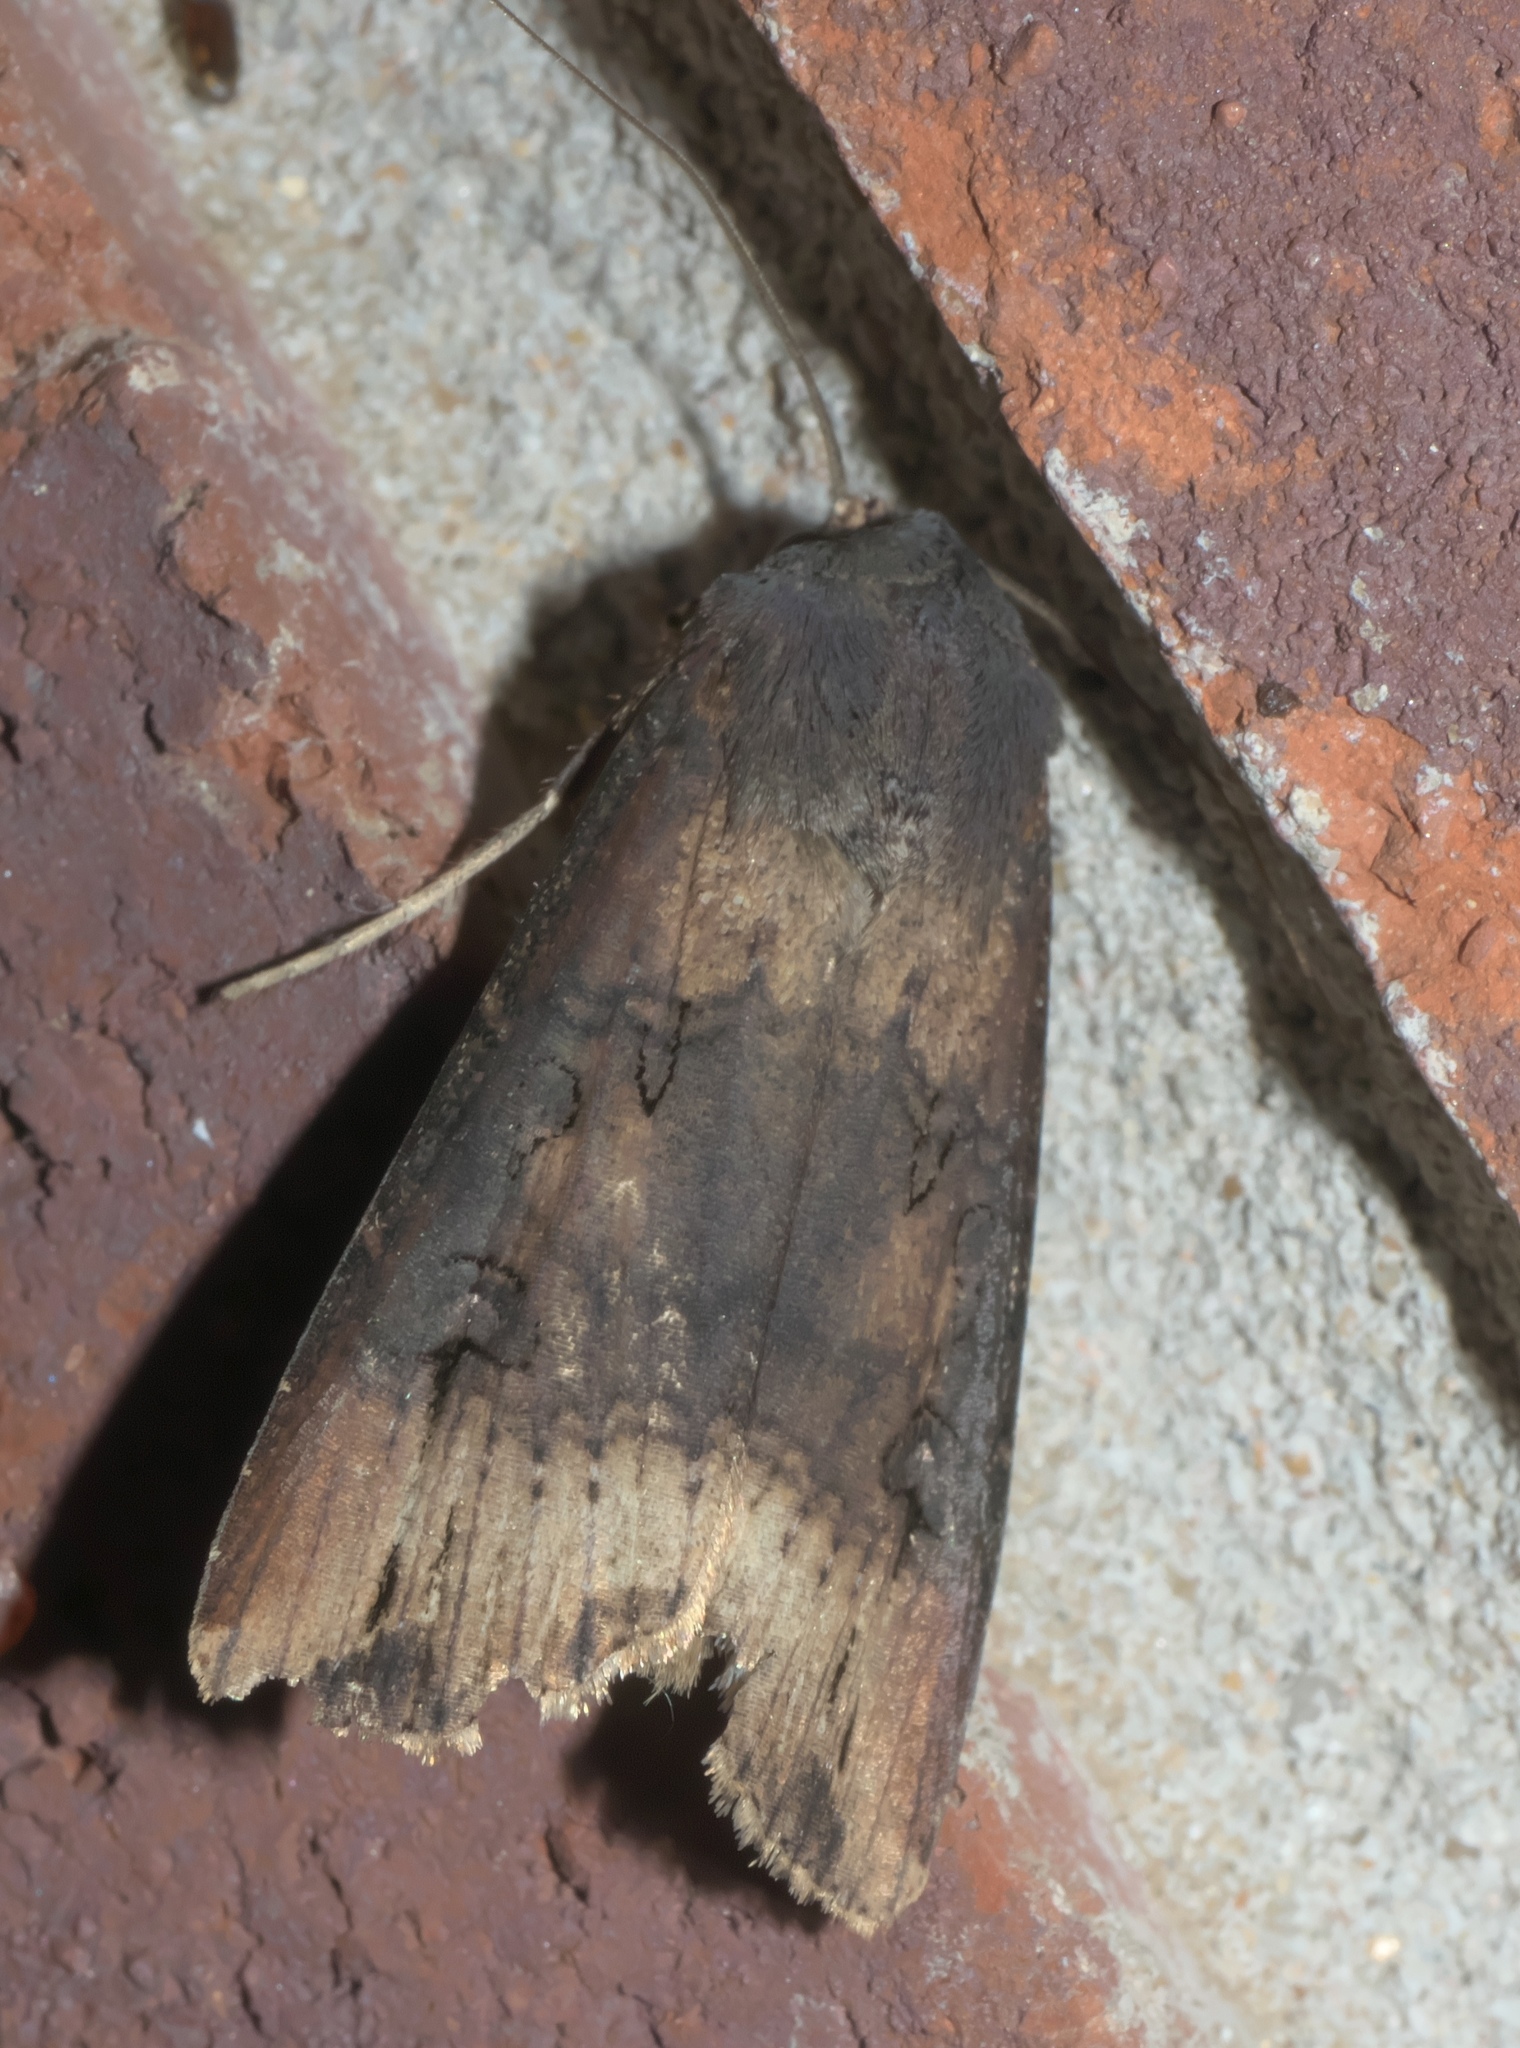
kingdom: Animalia
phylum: Arthropoda
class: Insecta
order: Lepidoptera
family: Noctuidae
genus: Agrotis
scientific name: Agrotis ipsilon
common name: Dark sword-grass
